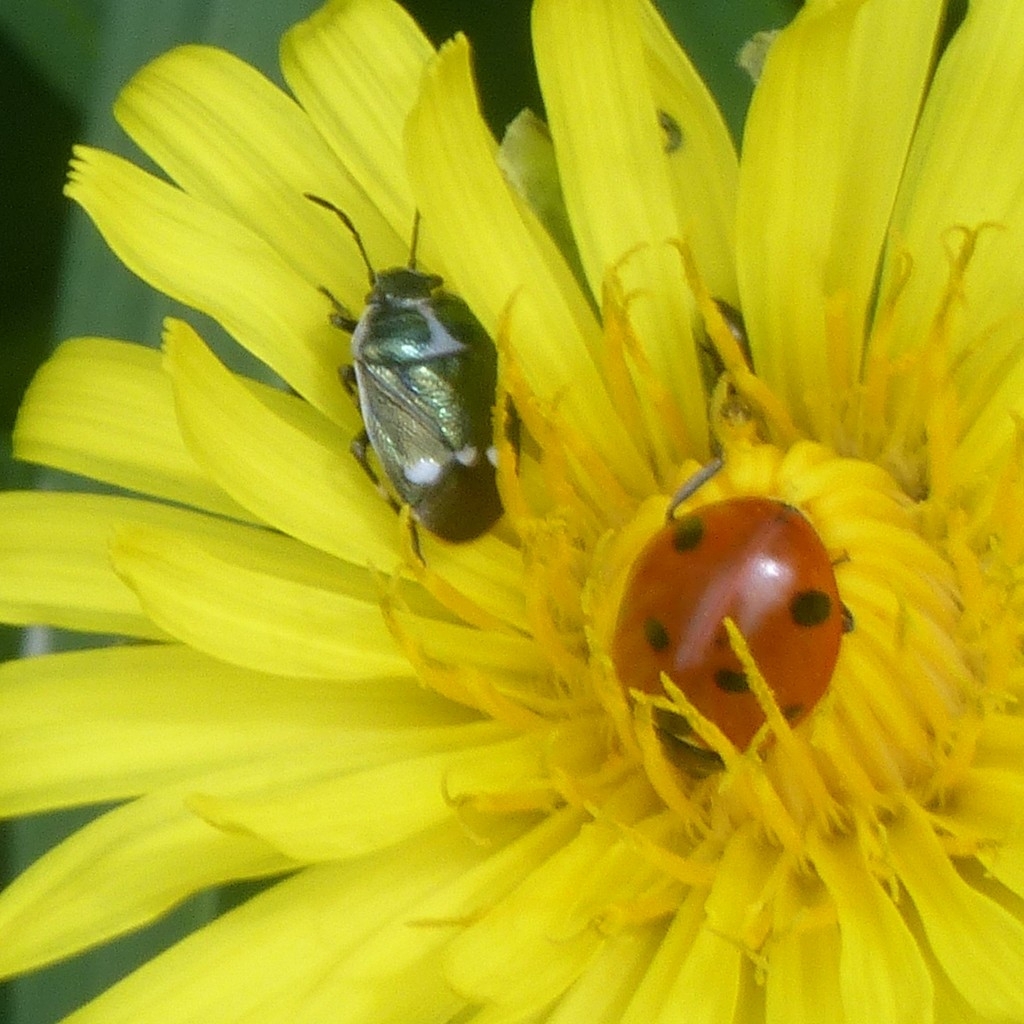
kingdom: Animalia
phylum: Arthropoda
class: Insecta
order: Hemiptera
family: Pentatomidae
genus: Eurydema
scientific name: Eurydema oleracea
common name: Cabbage bug
